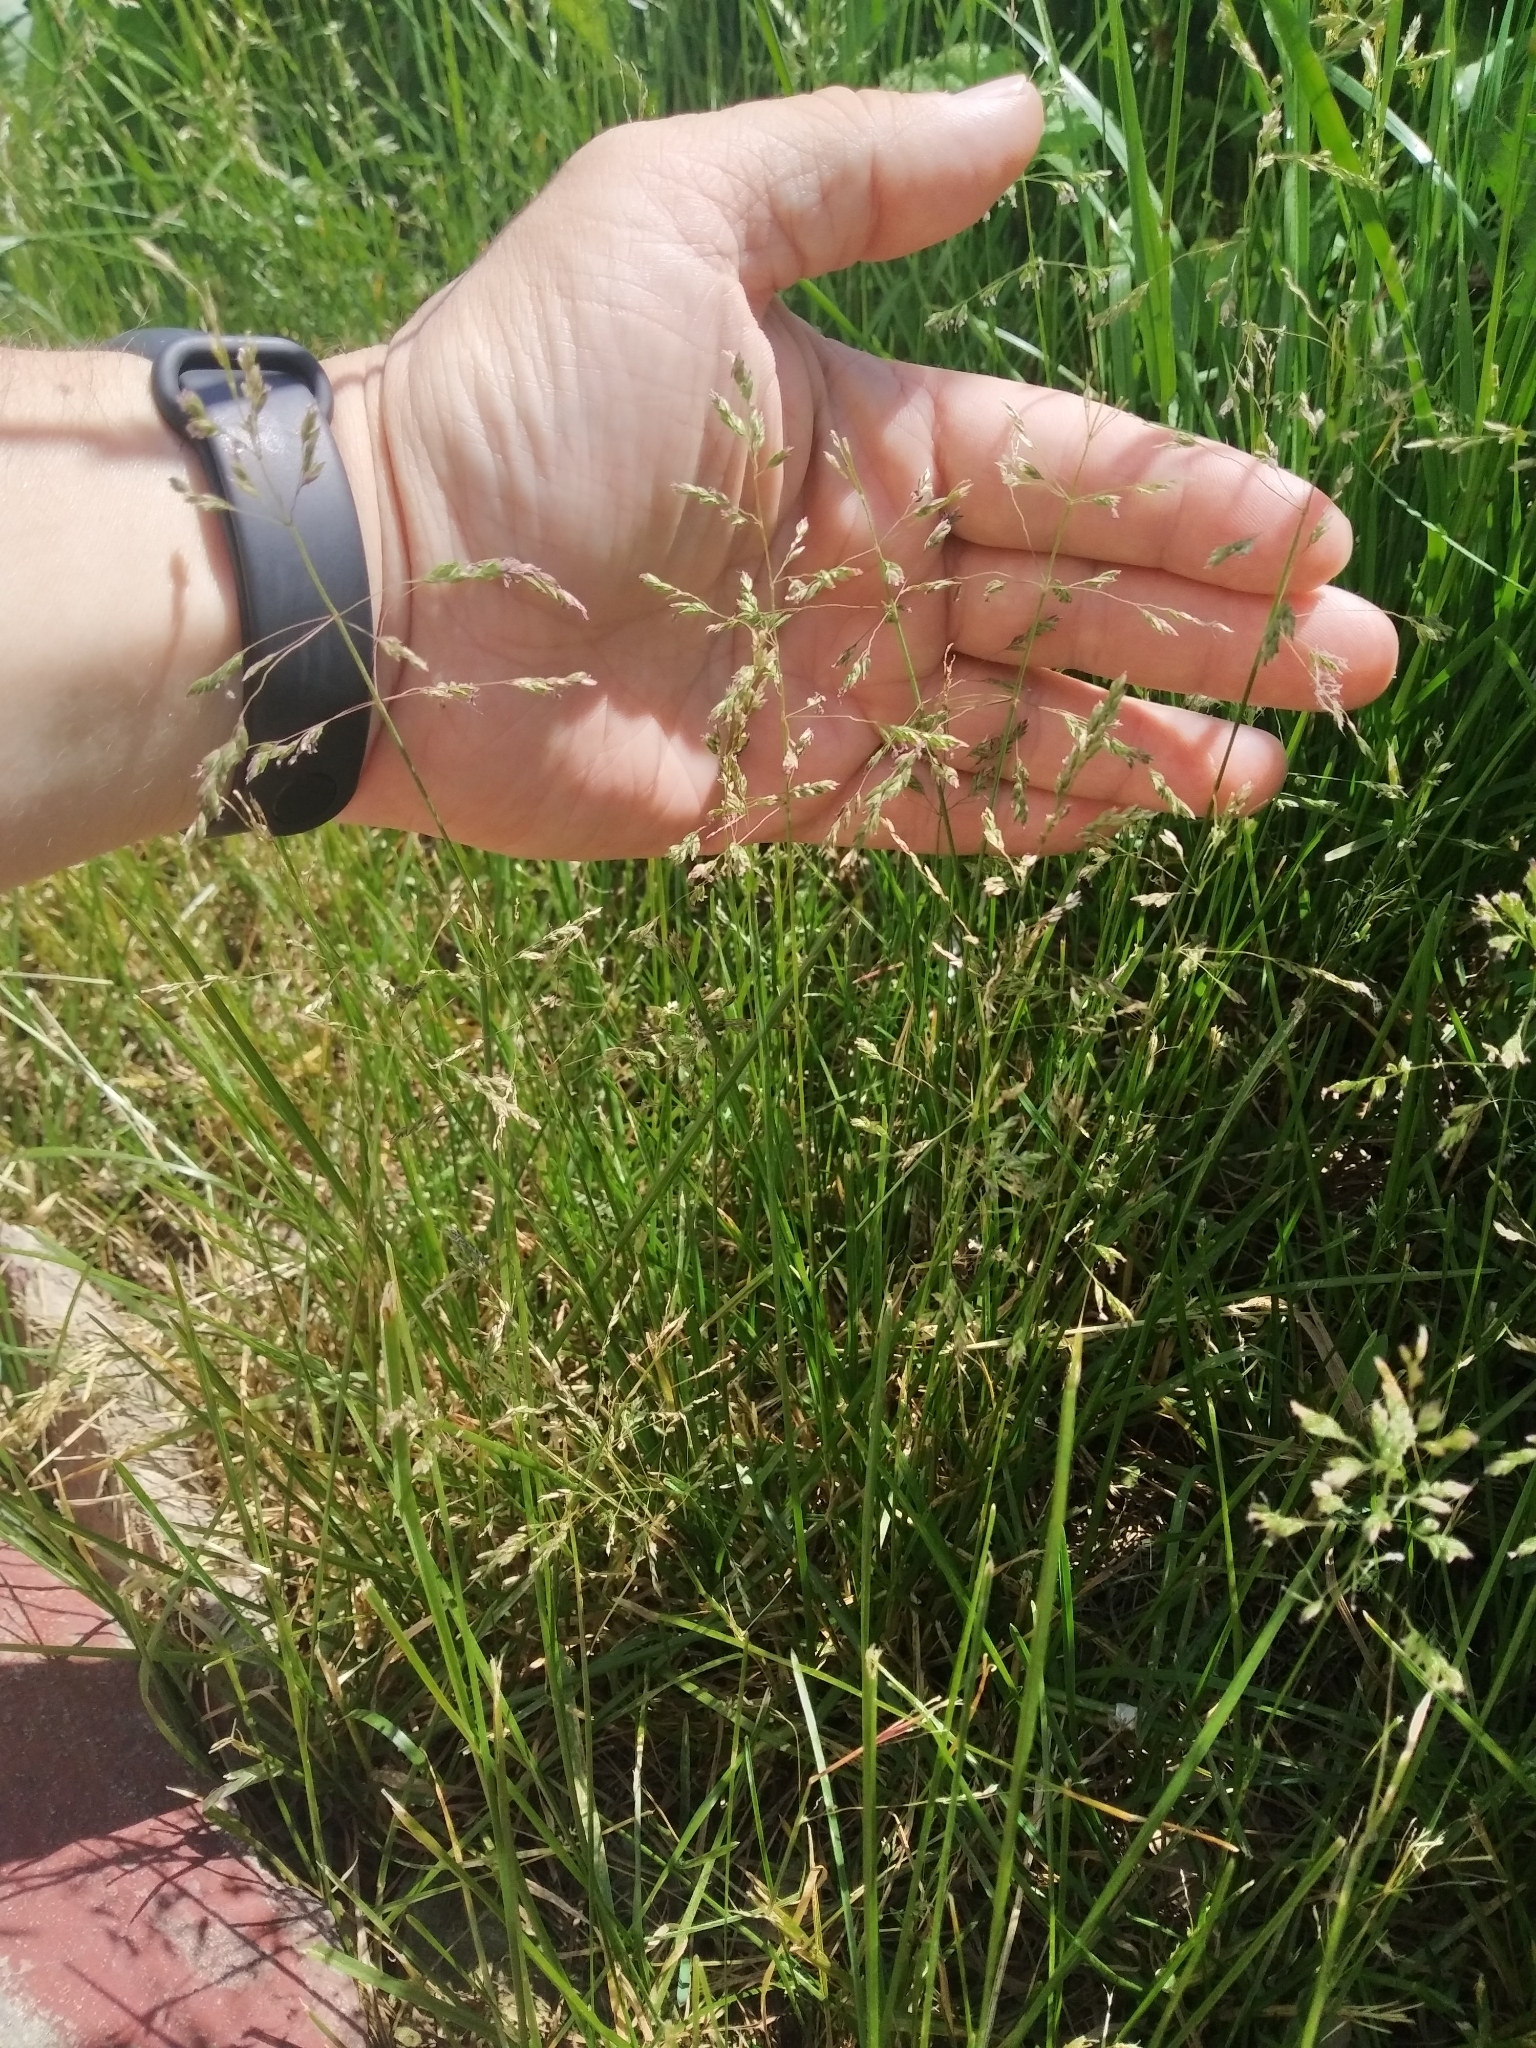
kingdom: Plantae
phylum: Tracheophyta
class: Liliopsida
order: Poales
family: Poaceae
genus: Poa
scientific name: Poa pratensis
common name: Kentucky bluegrass
